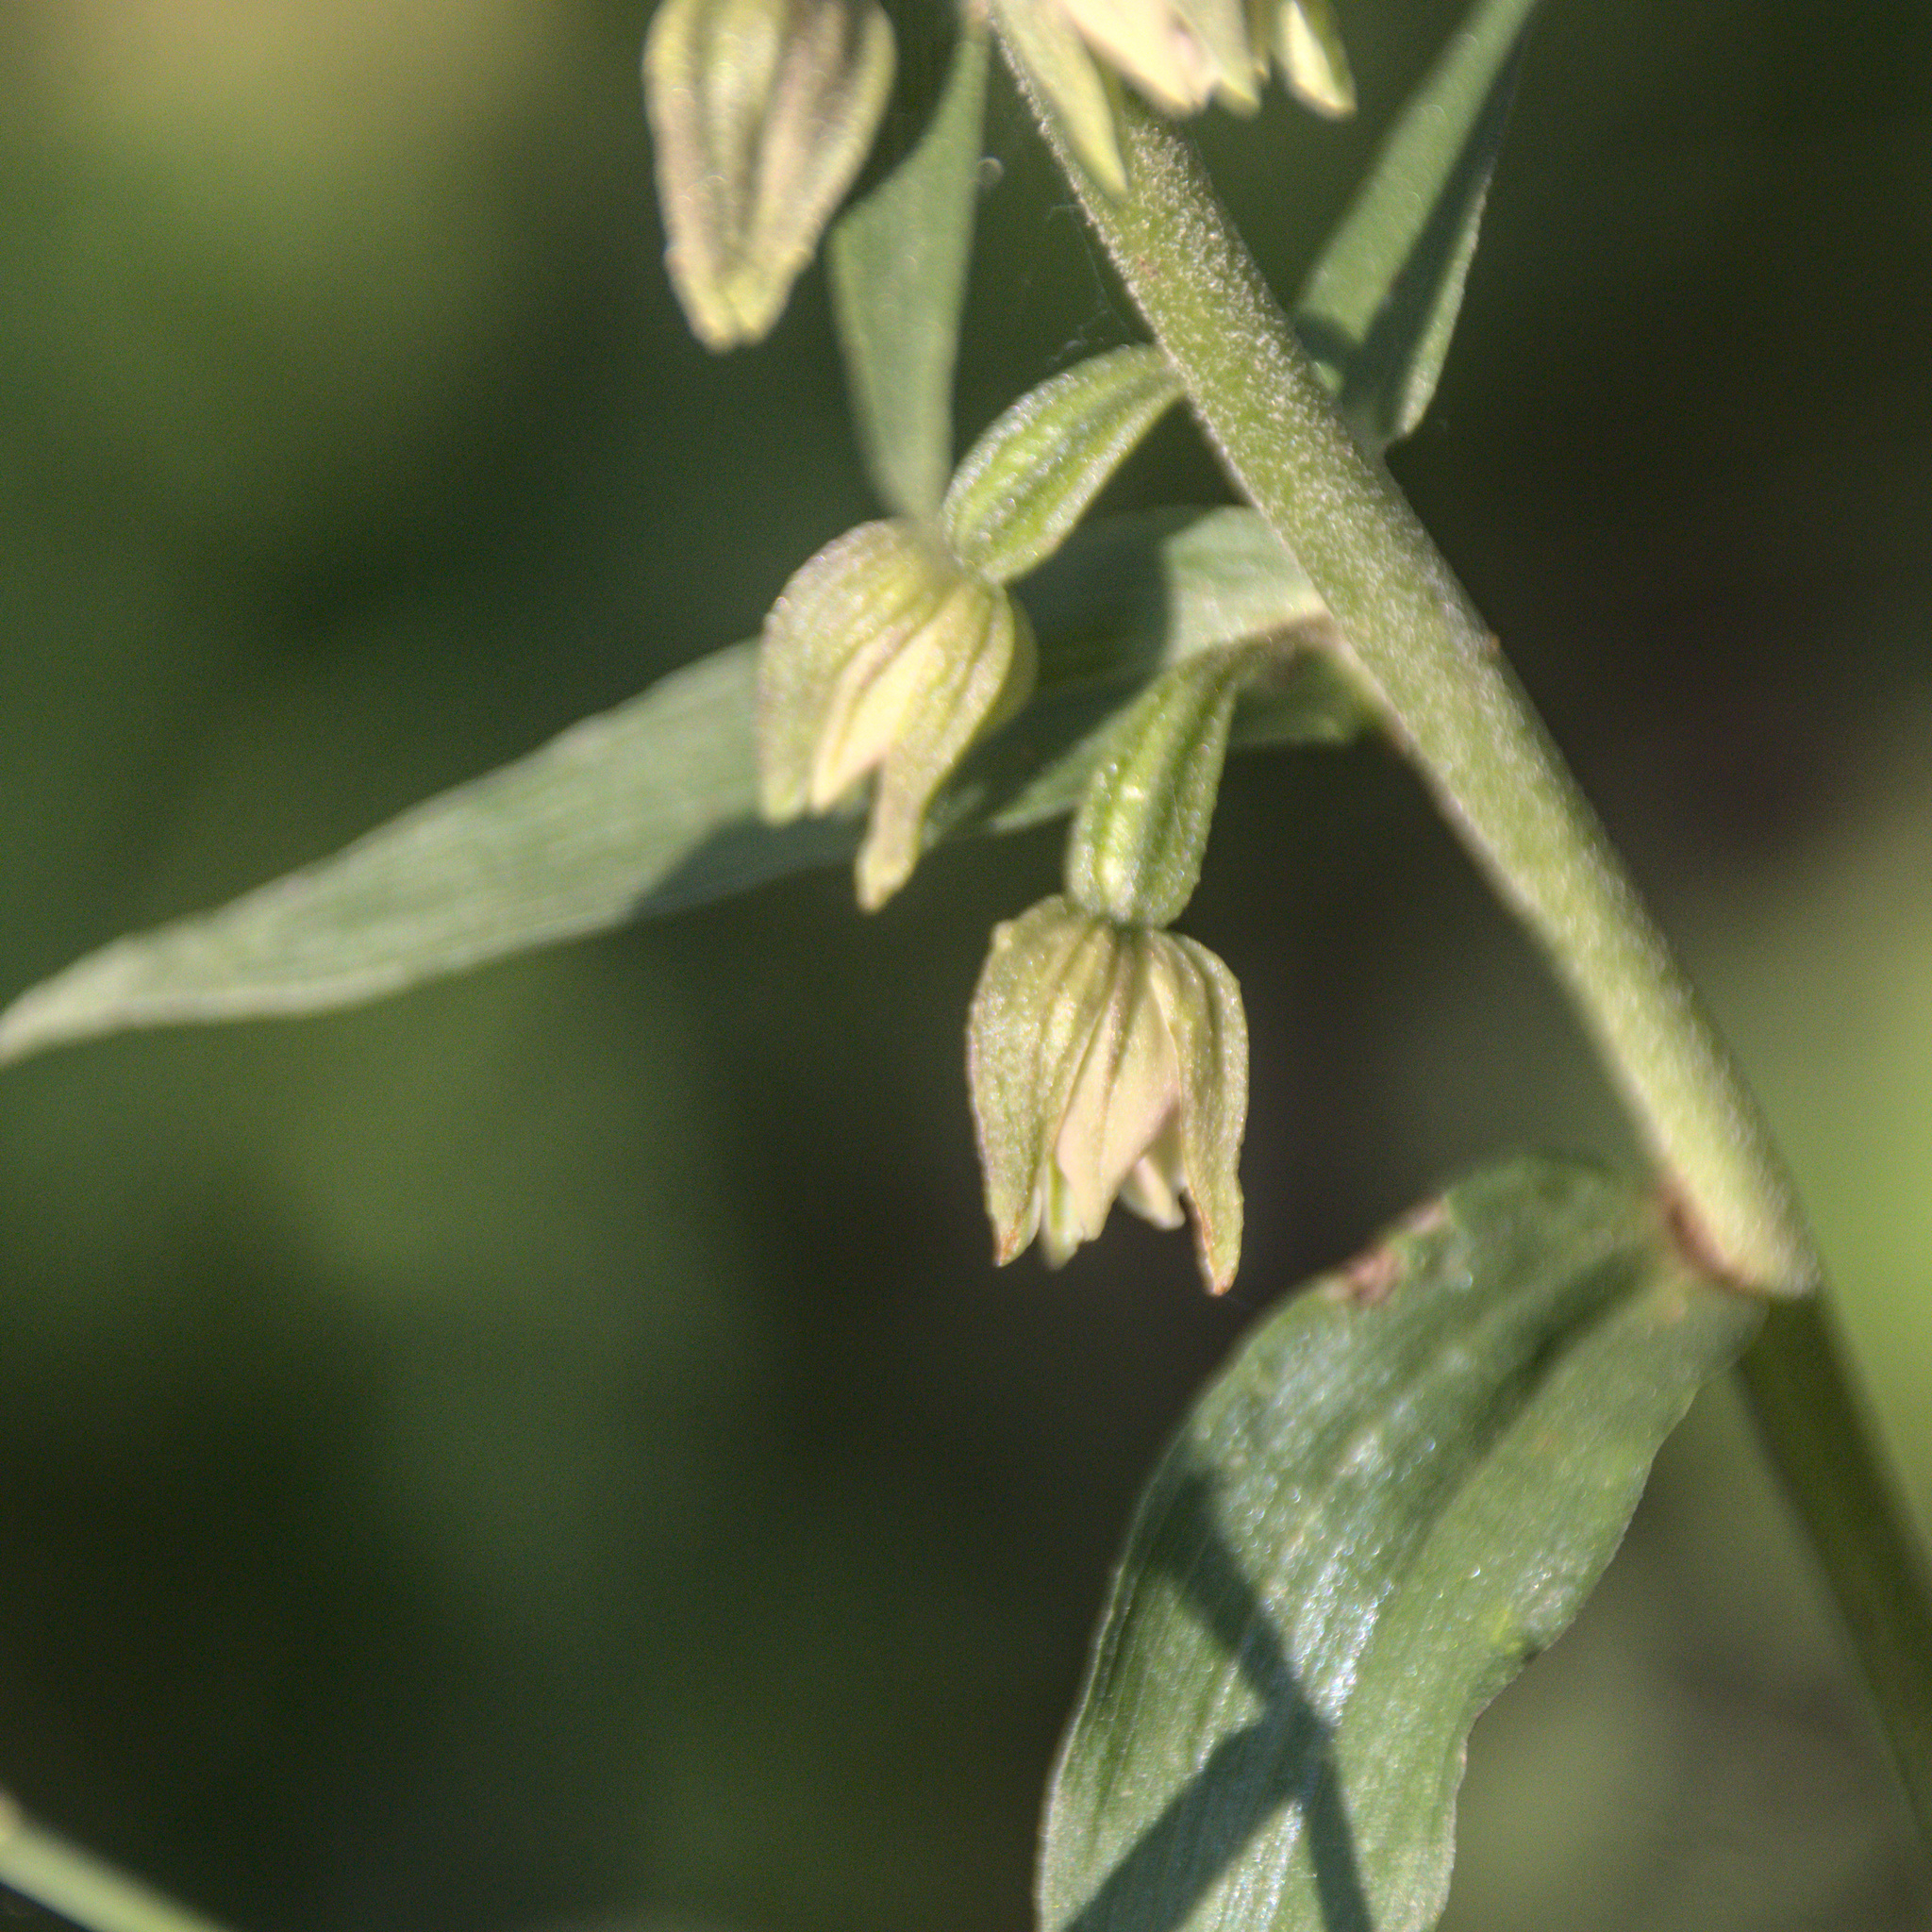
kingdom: Plantae
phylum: Tracheophyta
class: Liliopsida
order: Asparagales
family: Orchidaceae
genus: Epipactis
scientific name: Epipactis helleborine
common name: Broad-leaved helleborine
